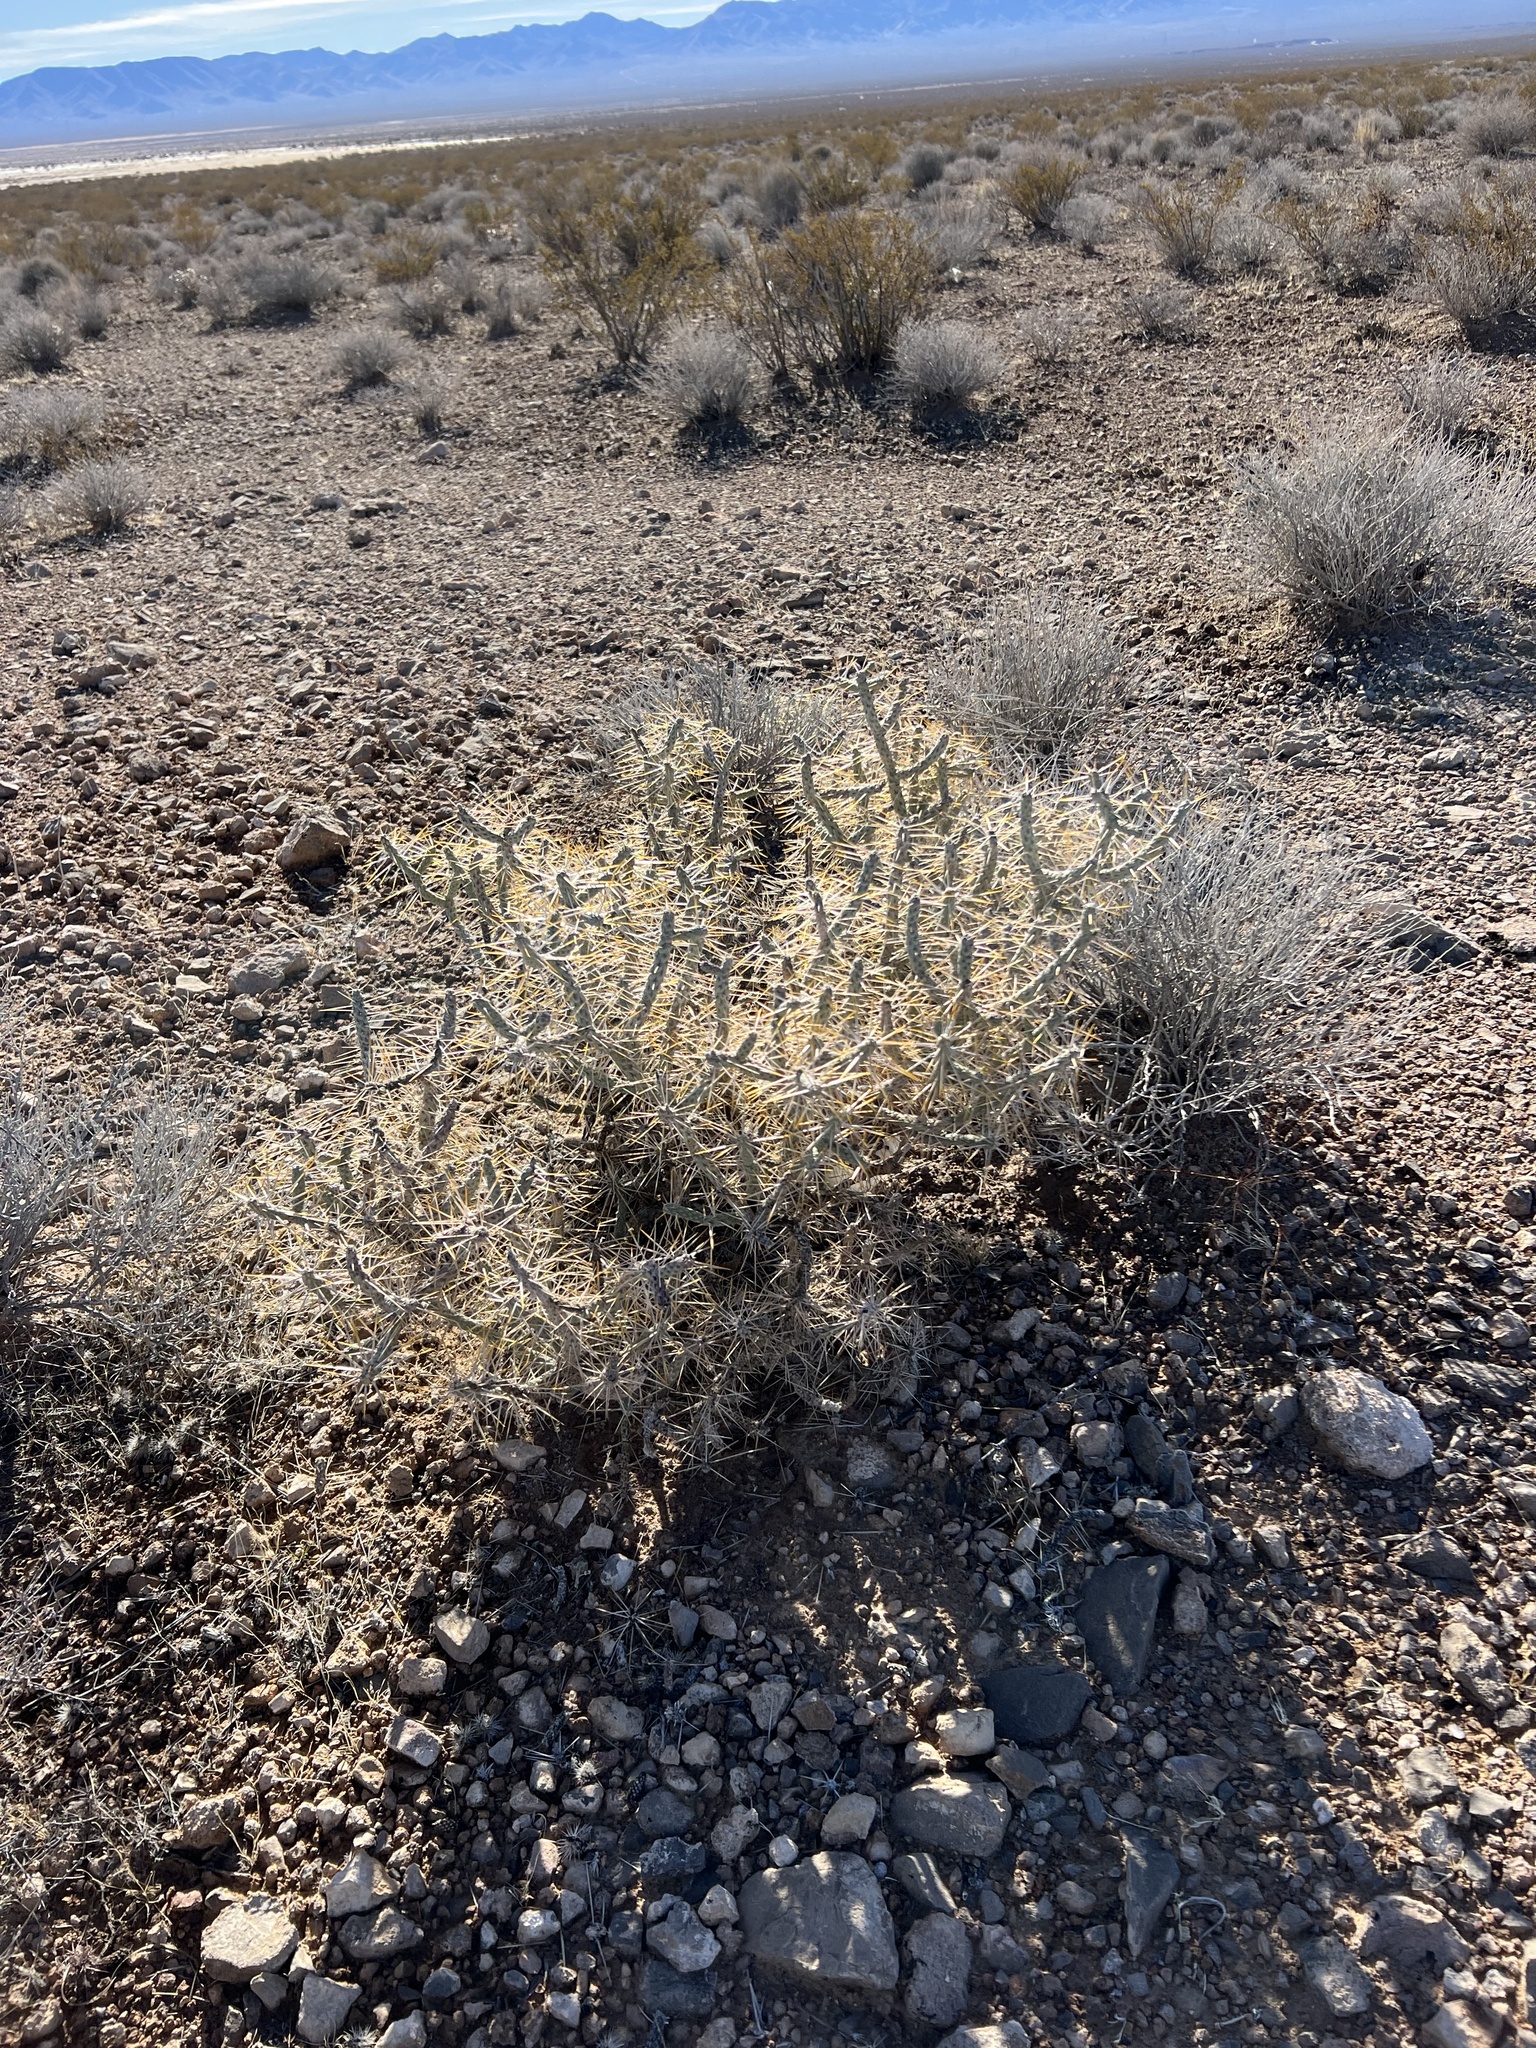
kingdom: Plantae
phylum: Tracheophyta
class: Magnoliopsida
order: Caryophyllales
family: Cactaceae
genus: Cylindropuntia
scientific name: Cylindropuntia ramosissima
